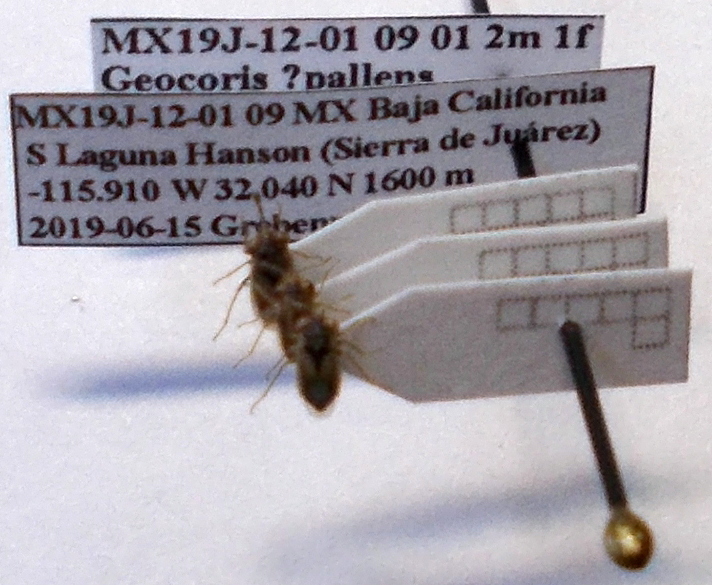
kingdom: Animalia
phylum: Arthropoda
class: Insecta
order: Hemiptera
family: Geocoridae
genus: Geocoris
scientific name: Geocoris pallens
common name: Big-eyed bug
